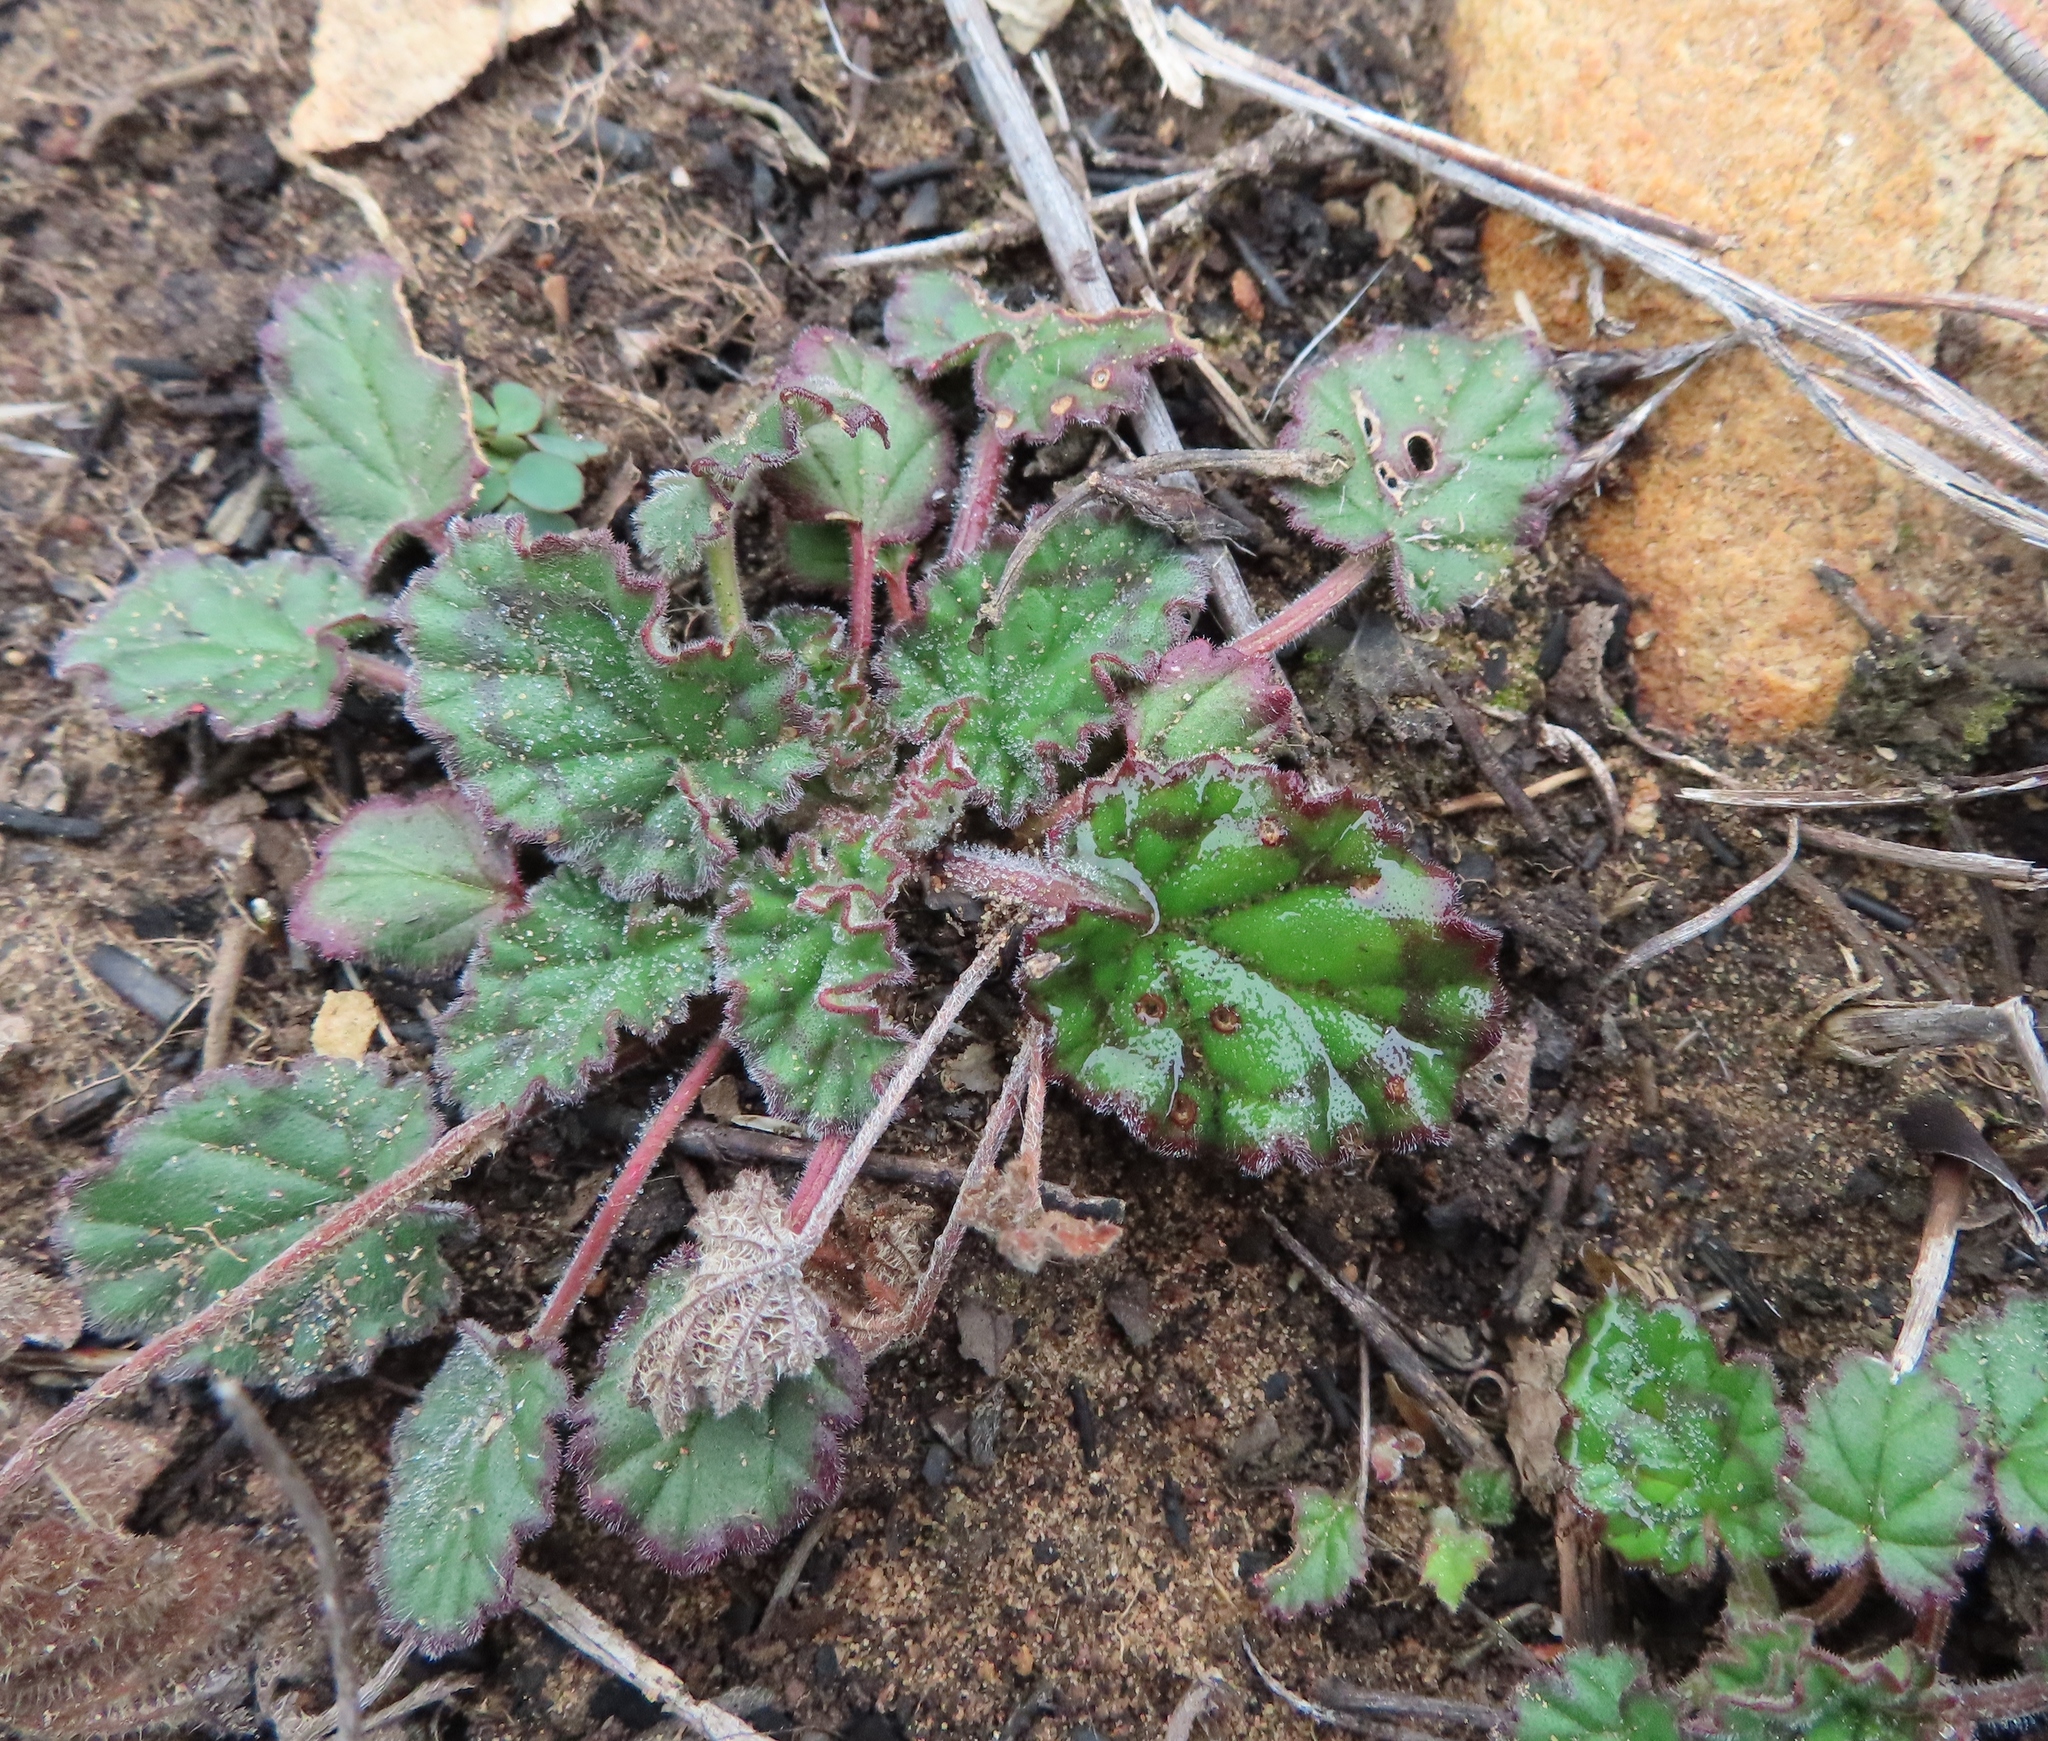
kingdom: Plantae
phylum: Tracheophyta
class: Magnoliopsida
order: Geraniales
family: Geraniaceae
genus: Pelargonium
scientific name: Pelargonium althaeoides
